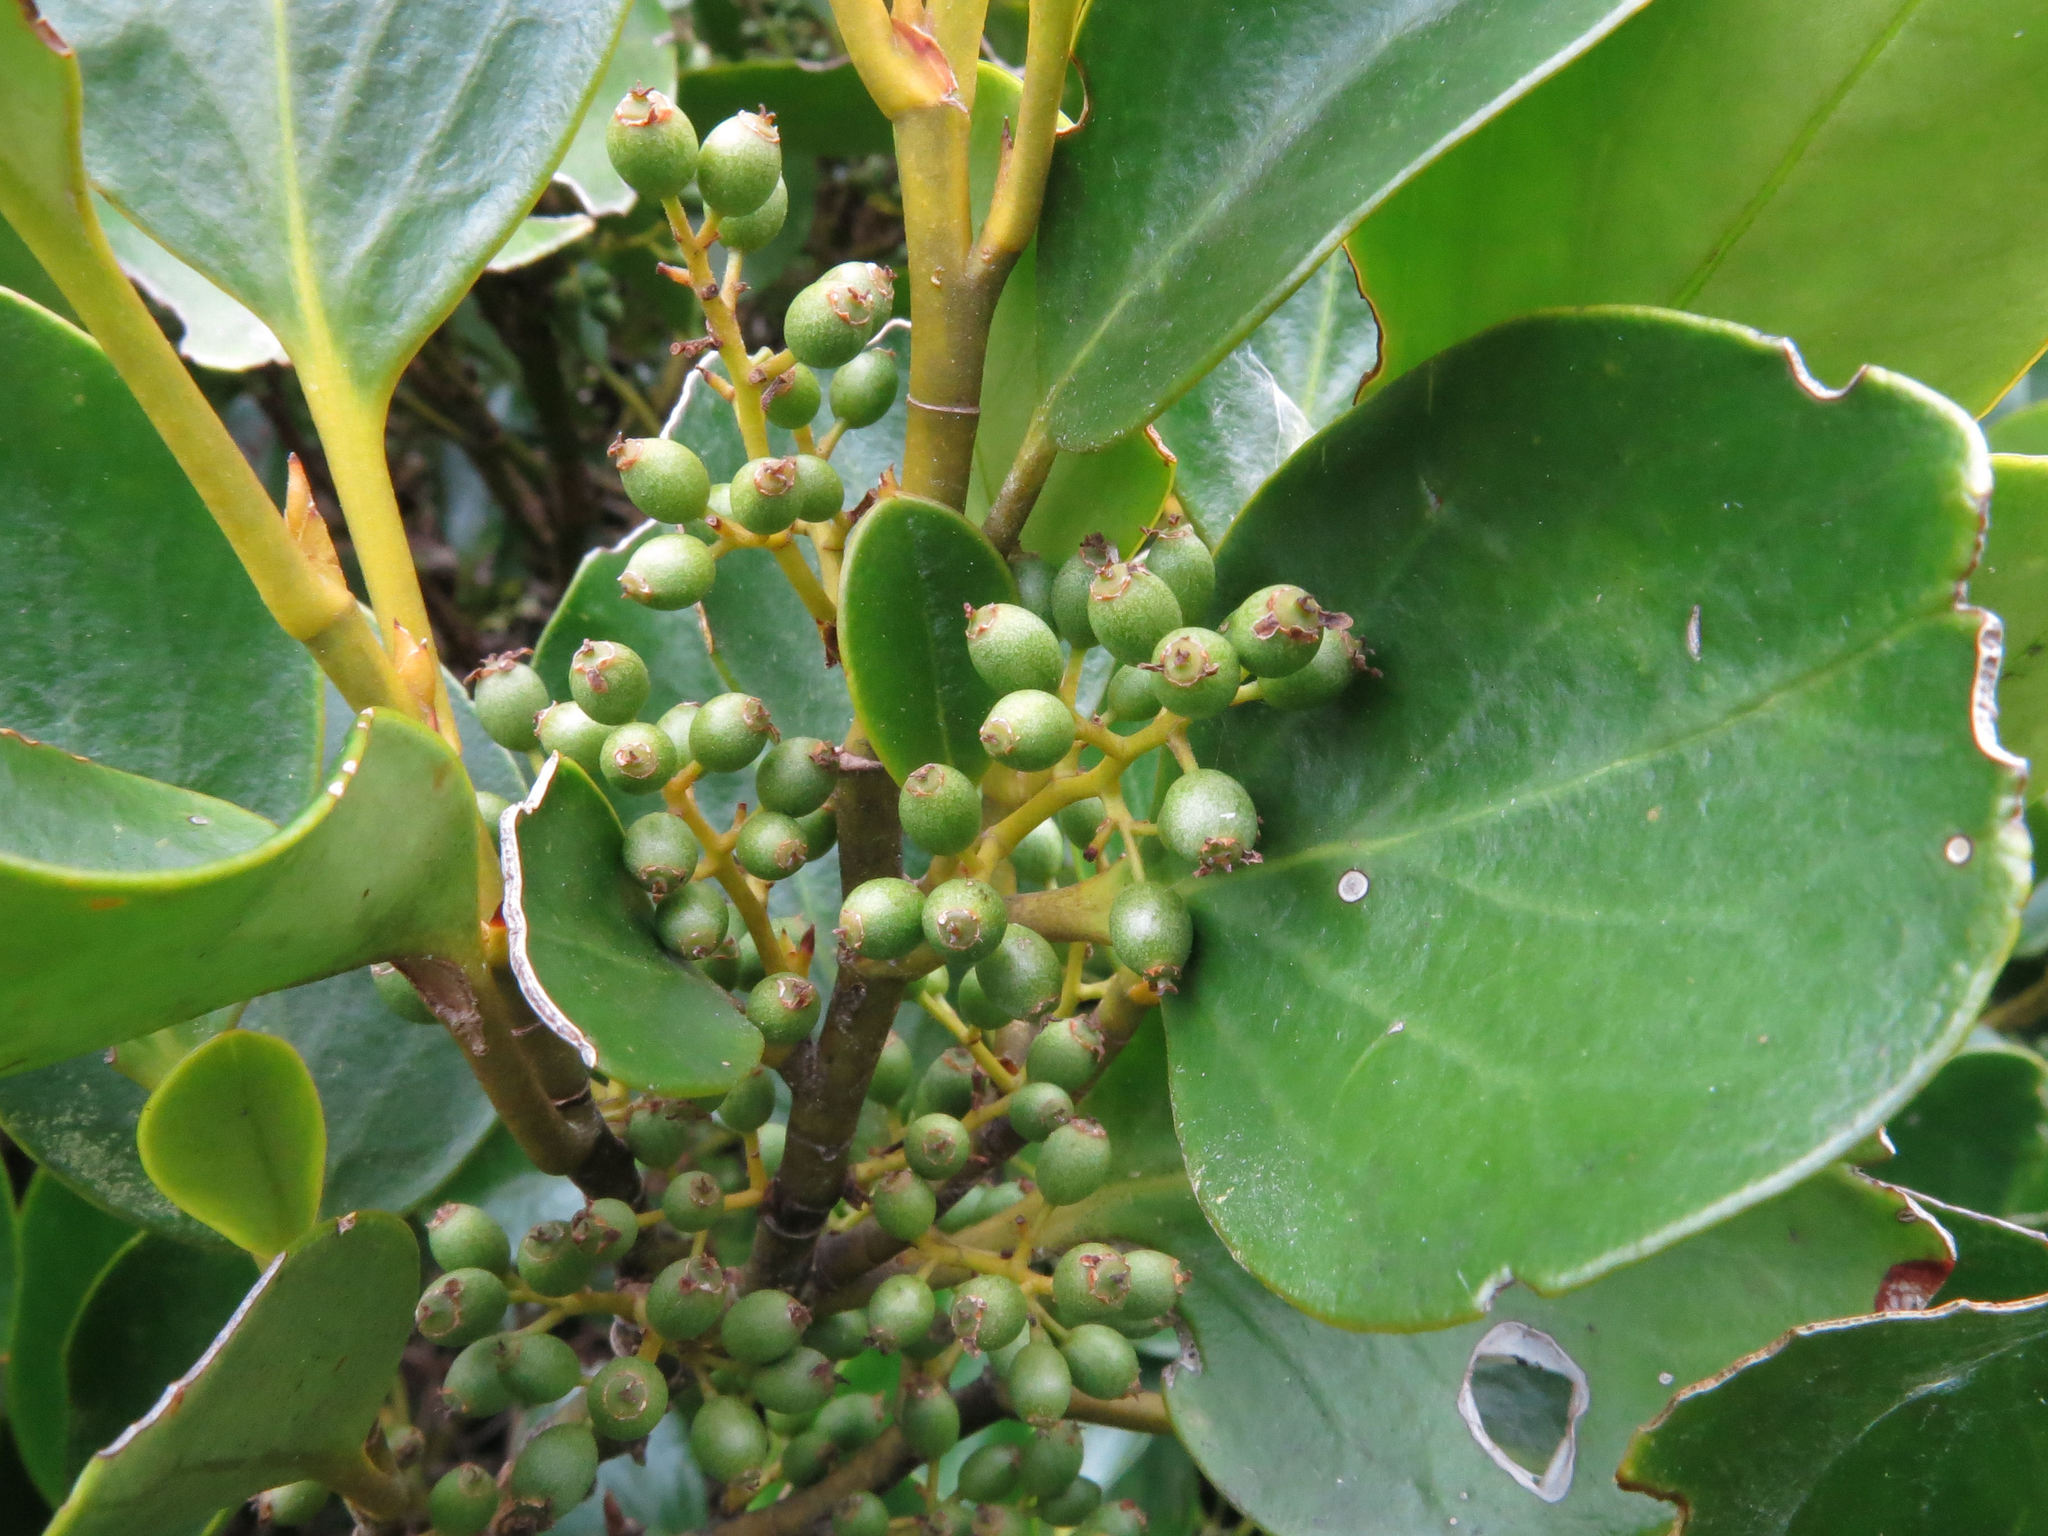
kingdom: Plantae
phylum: Tracheophyta
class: Magnoliopsida
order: Apiales
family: Griseliniaceae
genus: Griselinia
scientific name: Griselinia littoralis
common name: New zealand broadleaf
